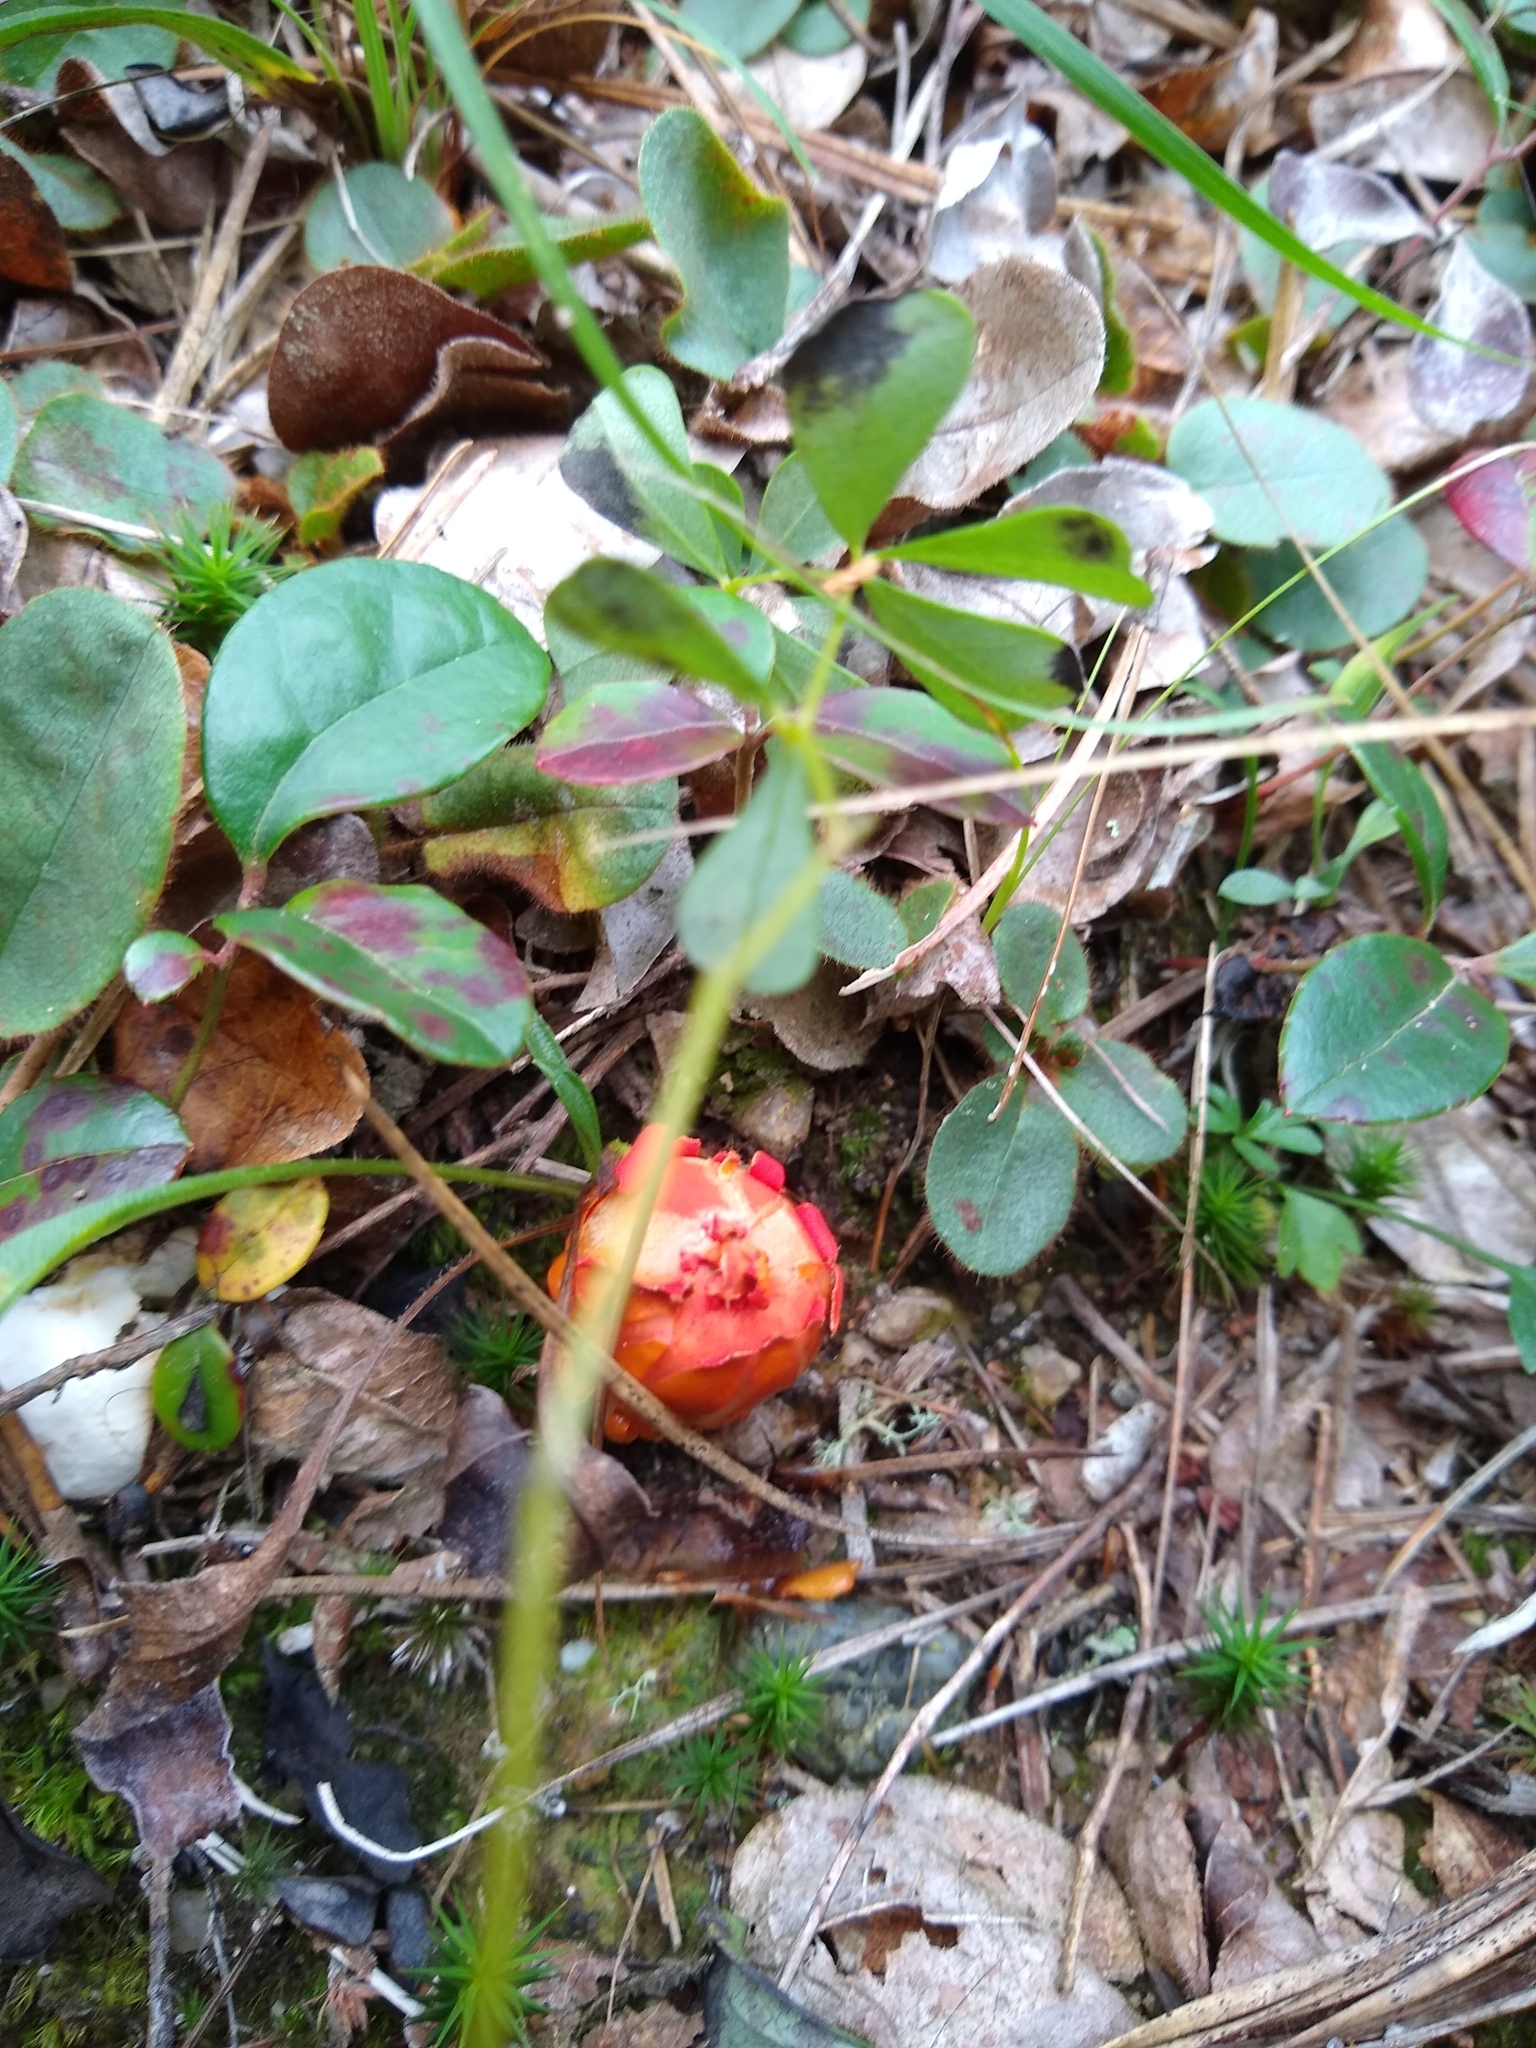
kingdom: Fungi
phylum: Basidiomycota
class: Agaricomycetes
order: Boletales
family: Calostomataceae
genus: Calostoma
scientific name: Calostoma cinnabarinum
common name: Stalked puffball-in-aspic
